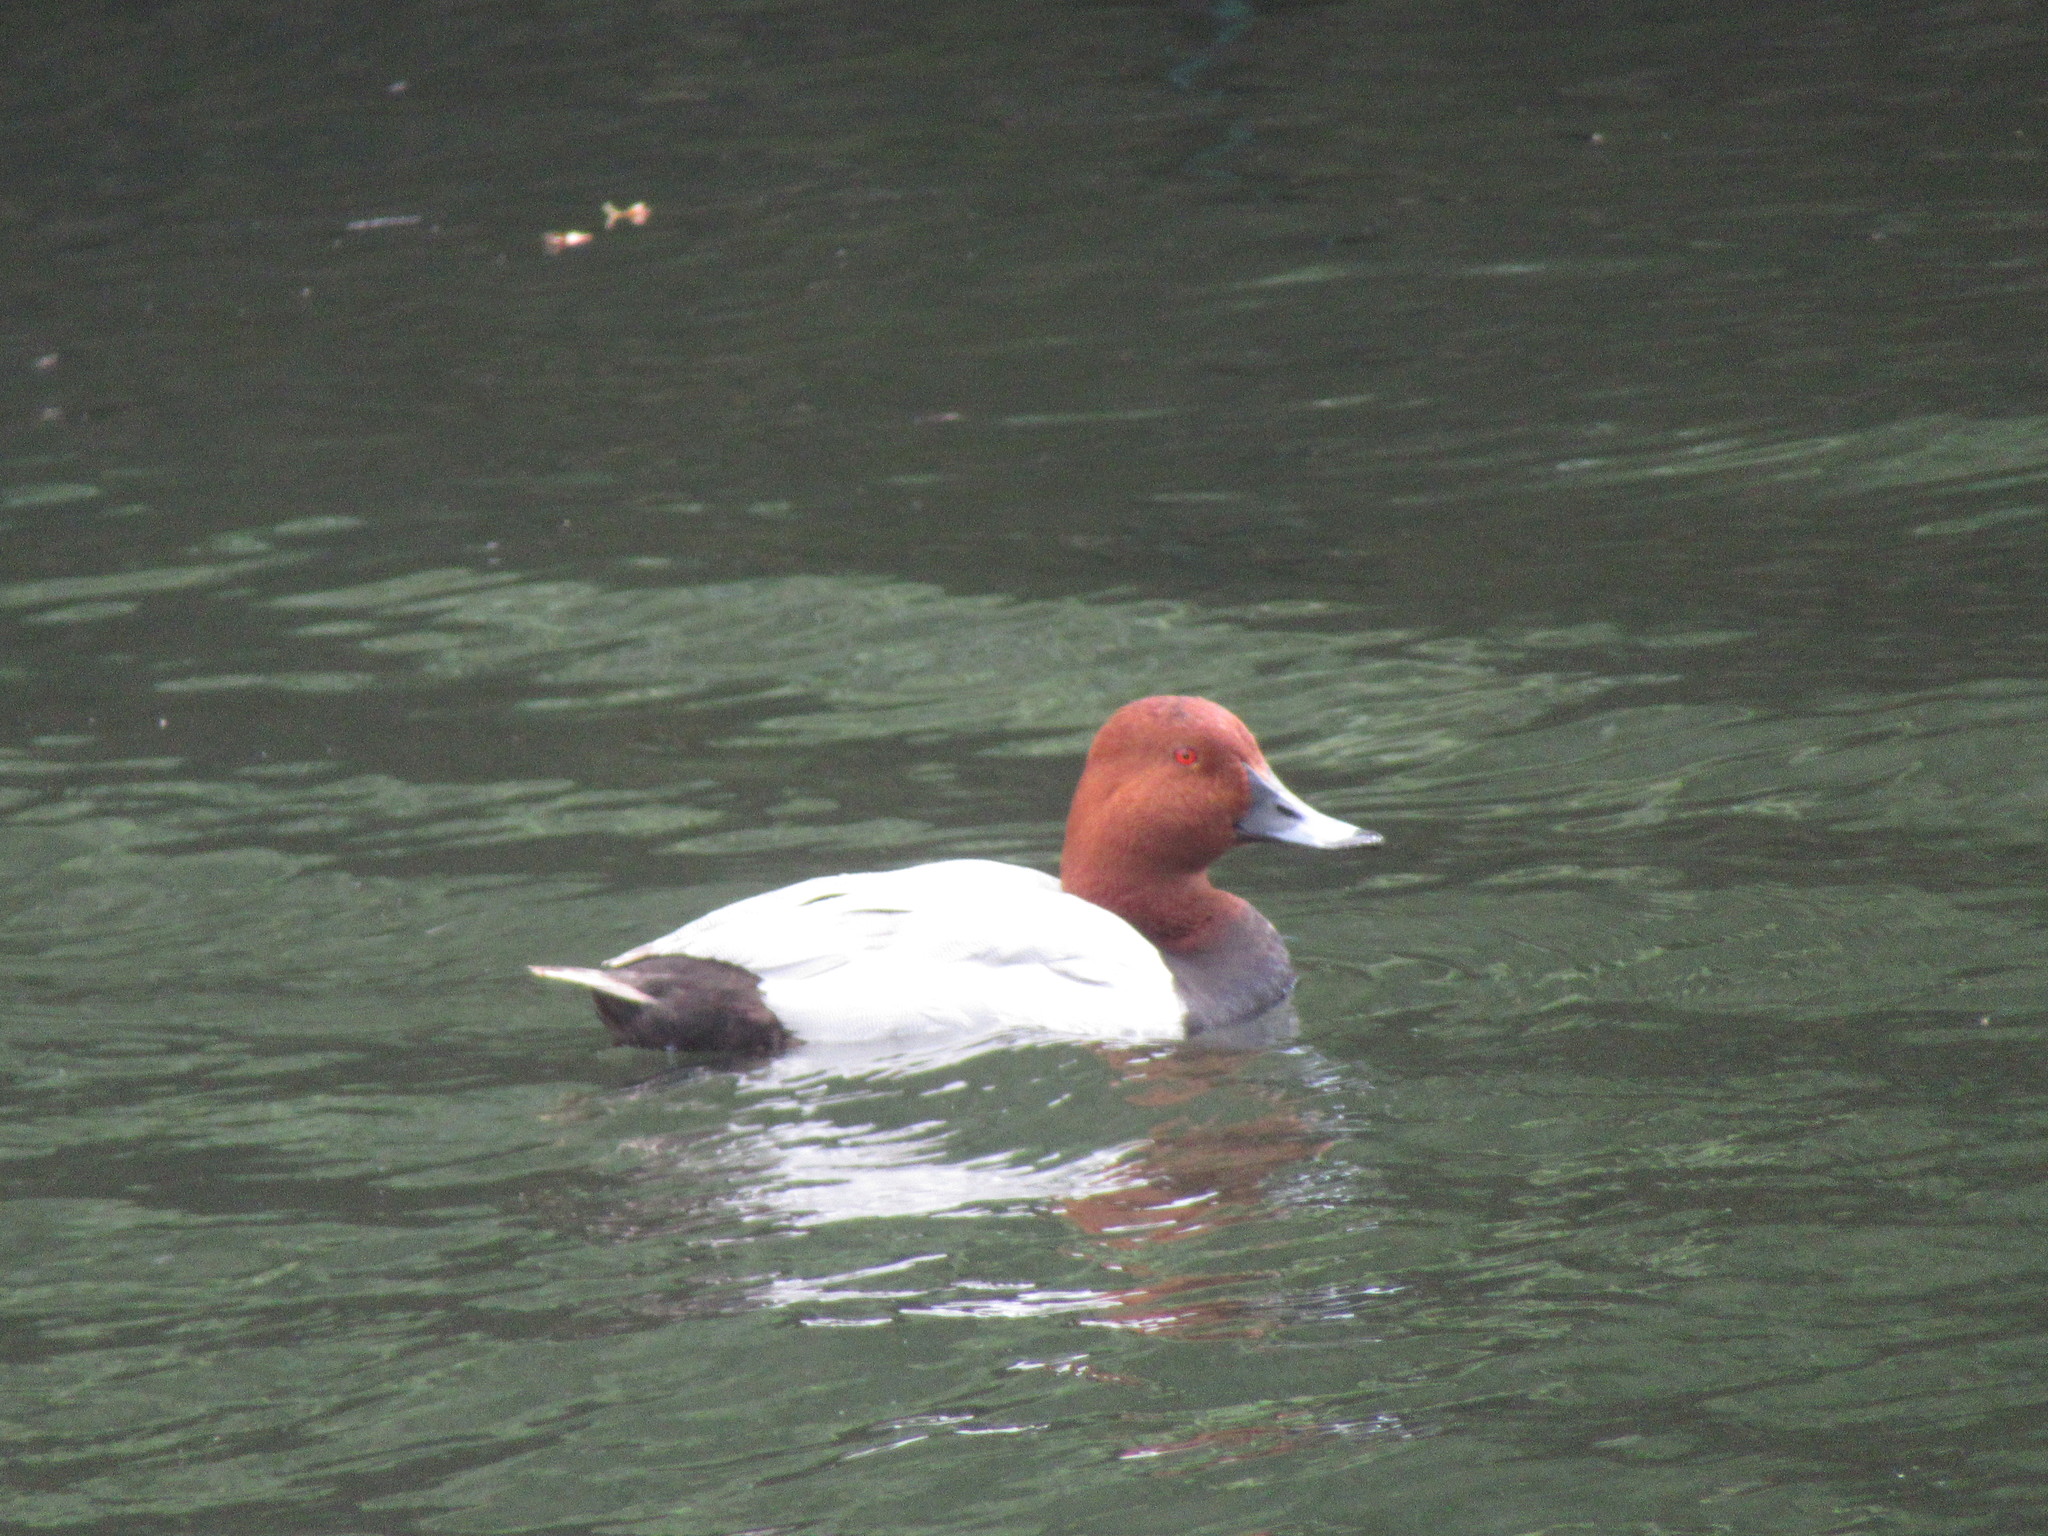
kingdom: Animalia
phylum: Chordata
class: Aves
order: Anseriformes
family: Anatidae
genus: Aythya
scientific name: Aythya ferina
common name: Common pochard
